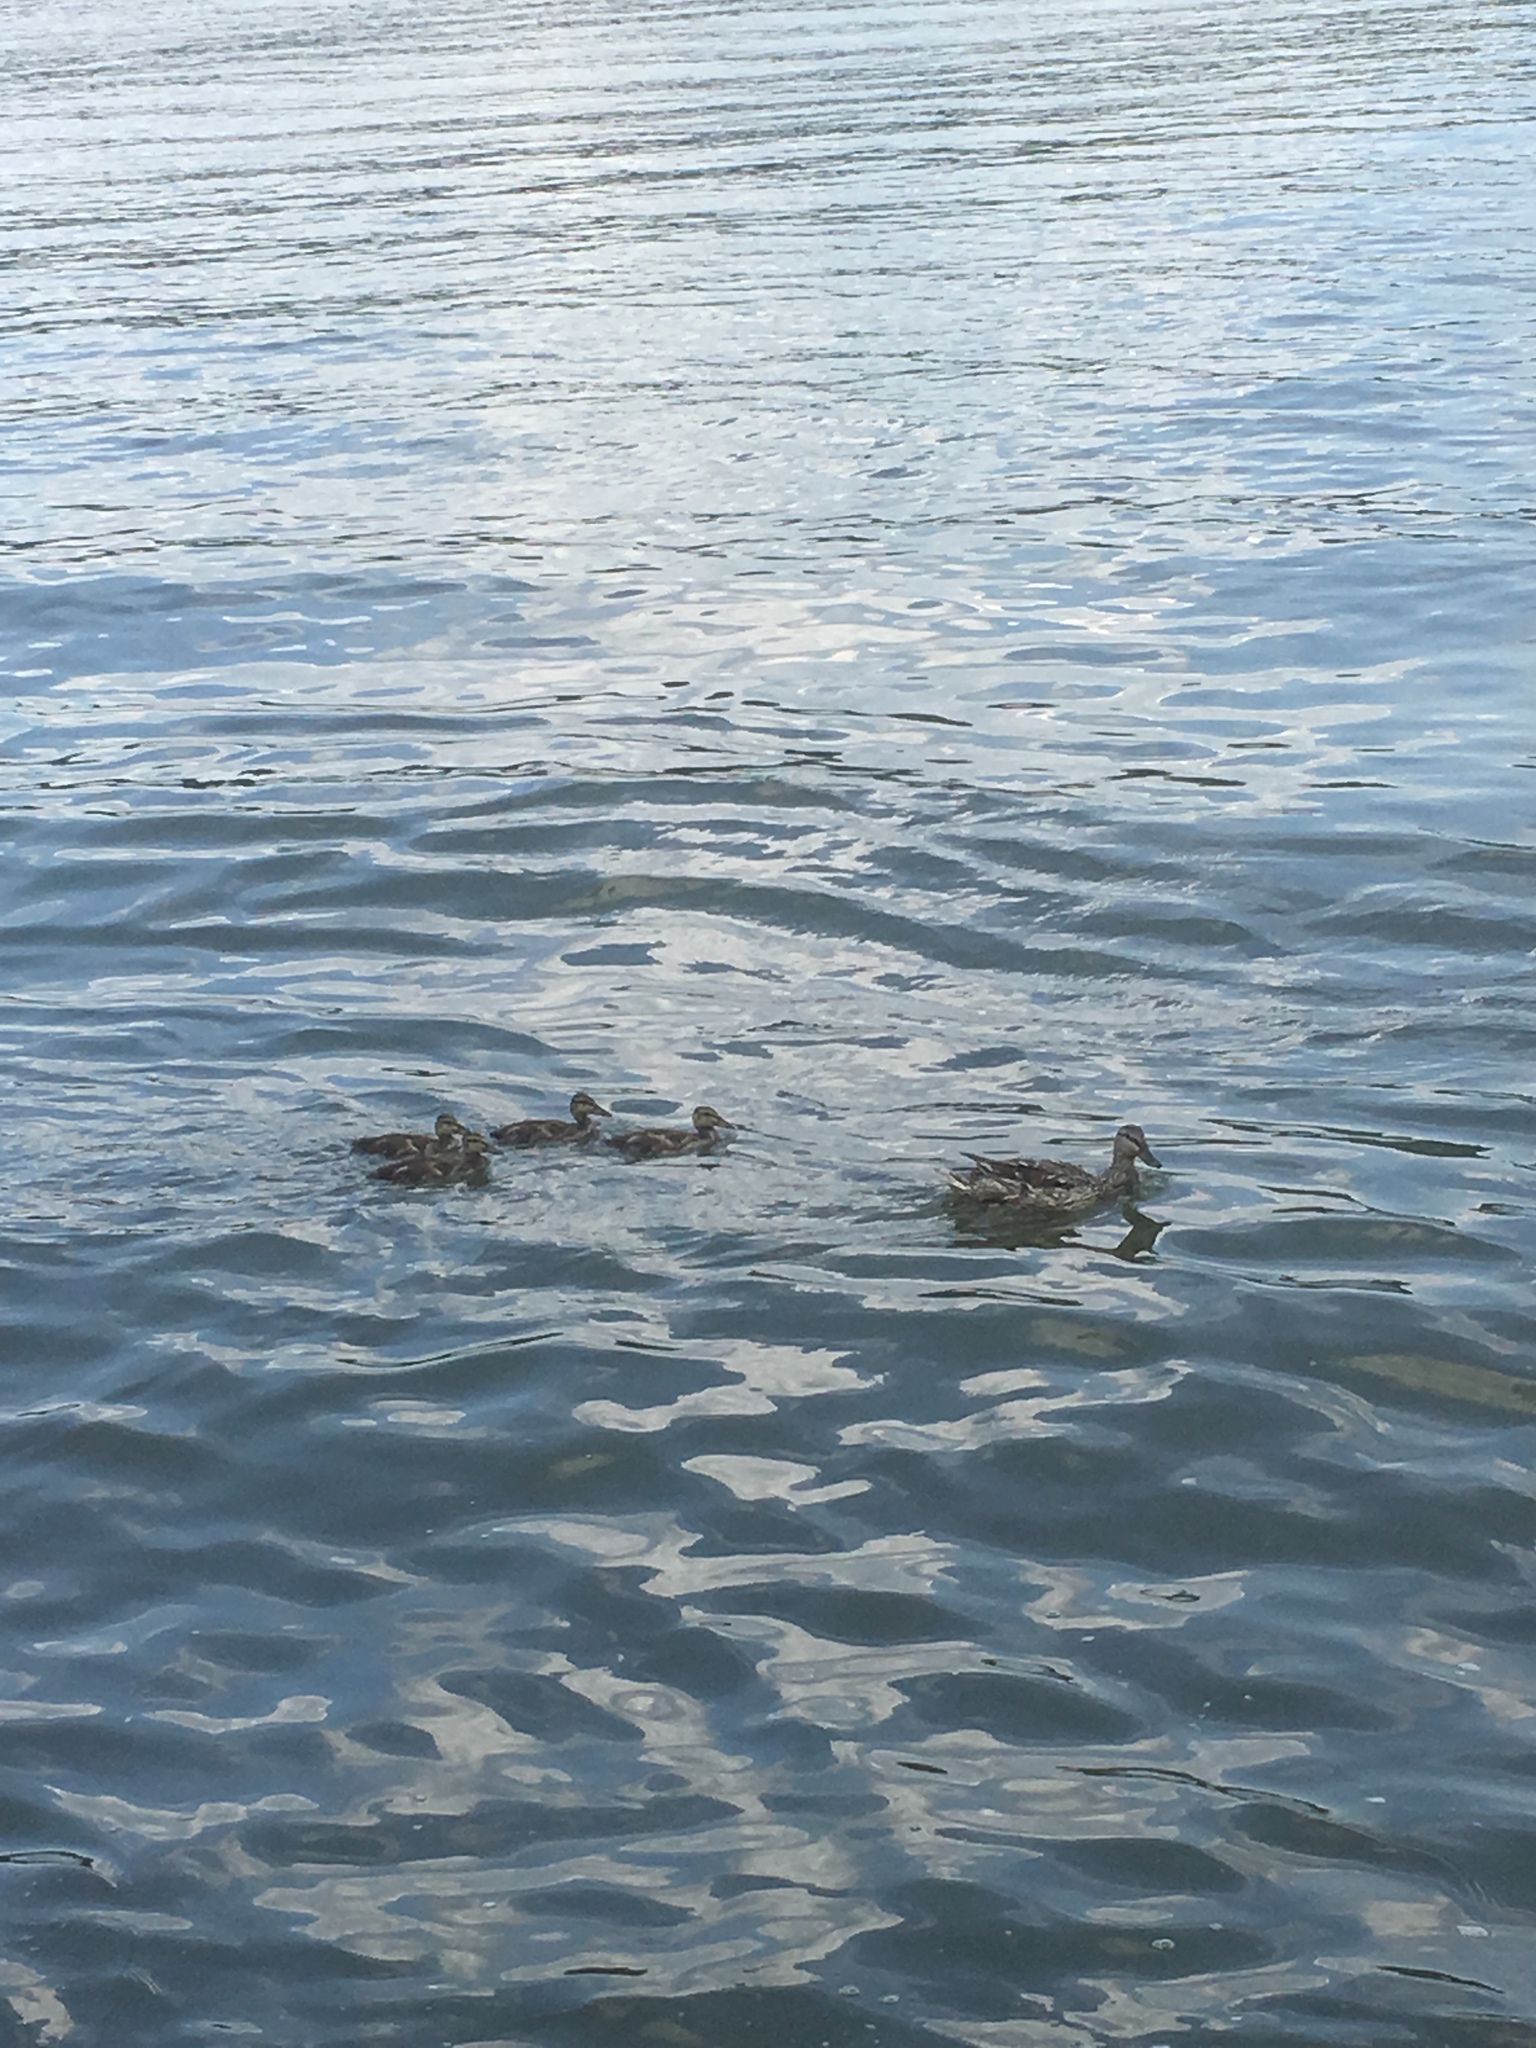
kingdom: Animalia
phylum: Chordata
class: Aves
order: Anseriformes
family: Anatidae
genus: Anas
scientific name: Anas platyrhynchos
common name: Mallard
